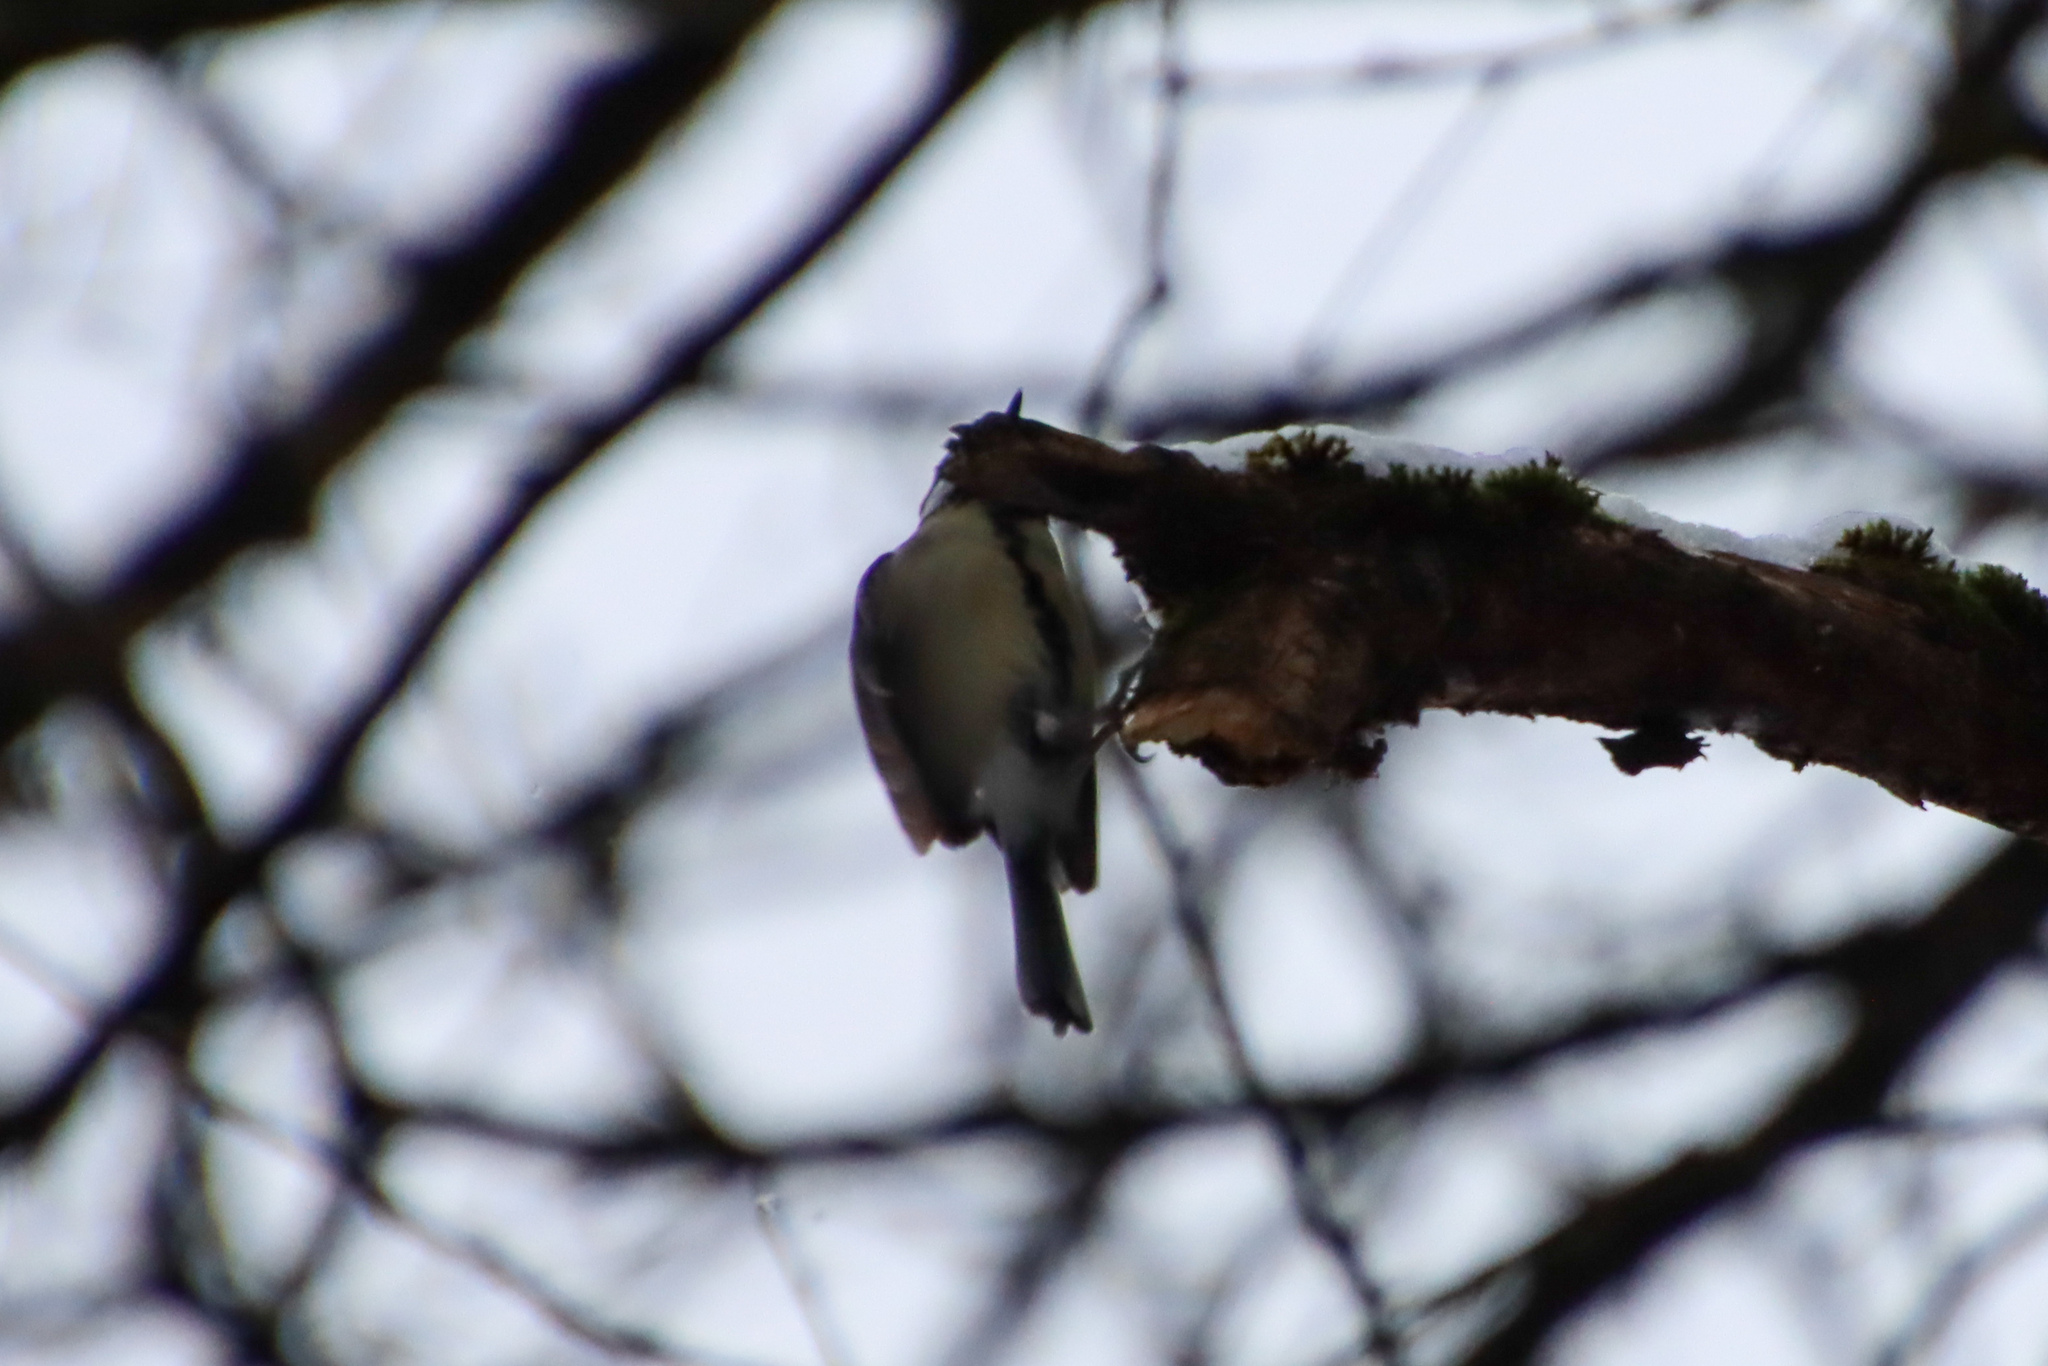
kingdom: Animalia
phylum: Chordata
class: Aves
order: Passeriformes
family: Paridae
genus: Parus
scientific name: Parus major
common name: Great tit
